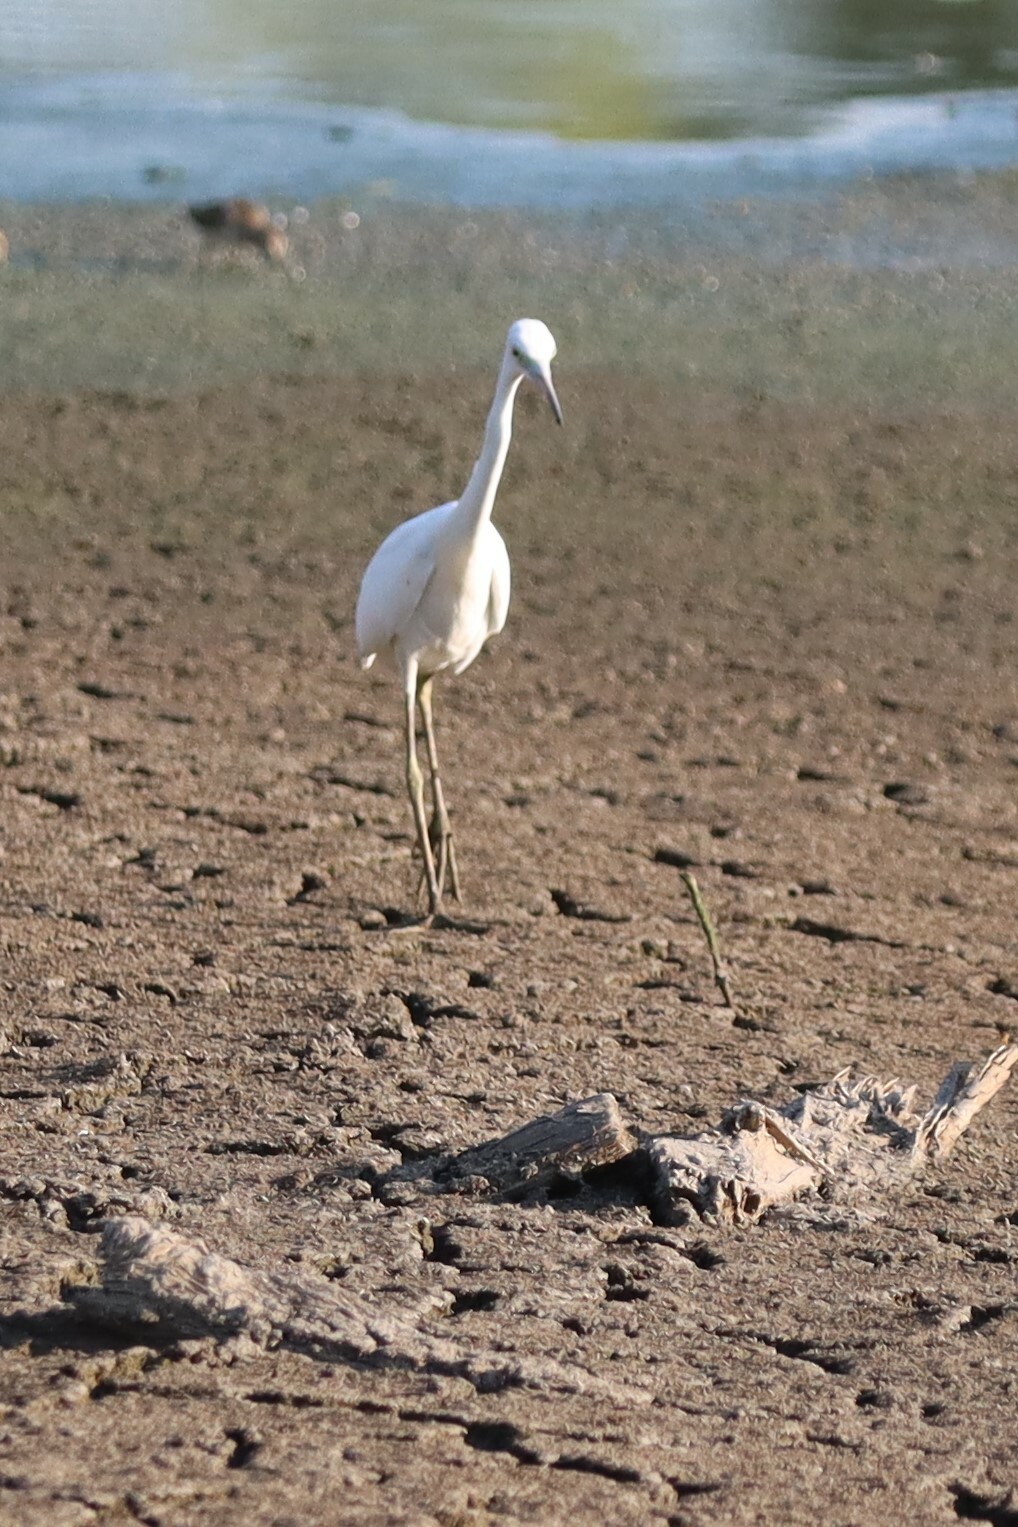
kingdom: Animalia
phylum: Chordata
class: Aves
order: Pelecaniformes
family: Ardeidae
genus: Egretta
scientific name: Egretta caerulea
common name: Little blue heron
